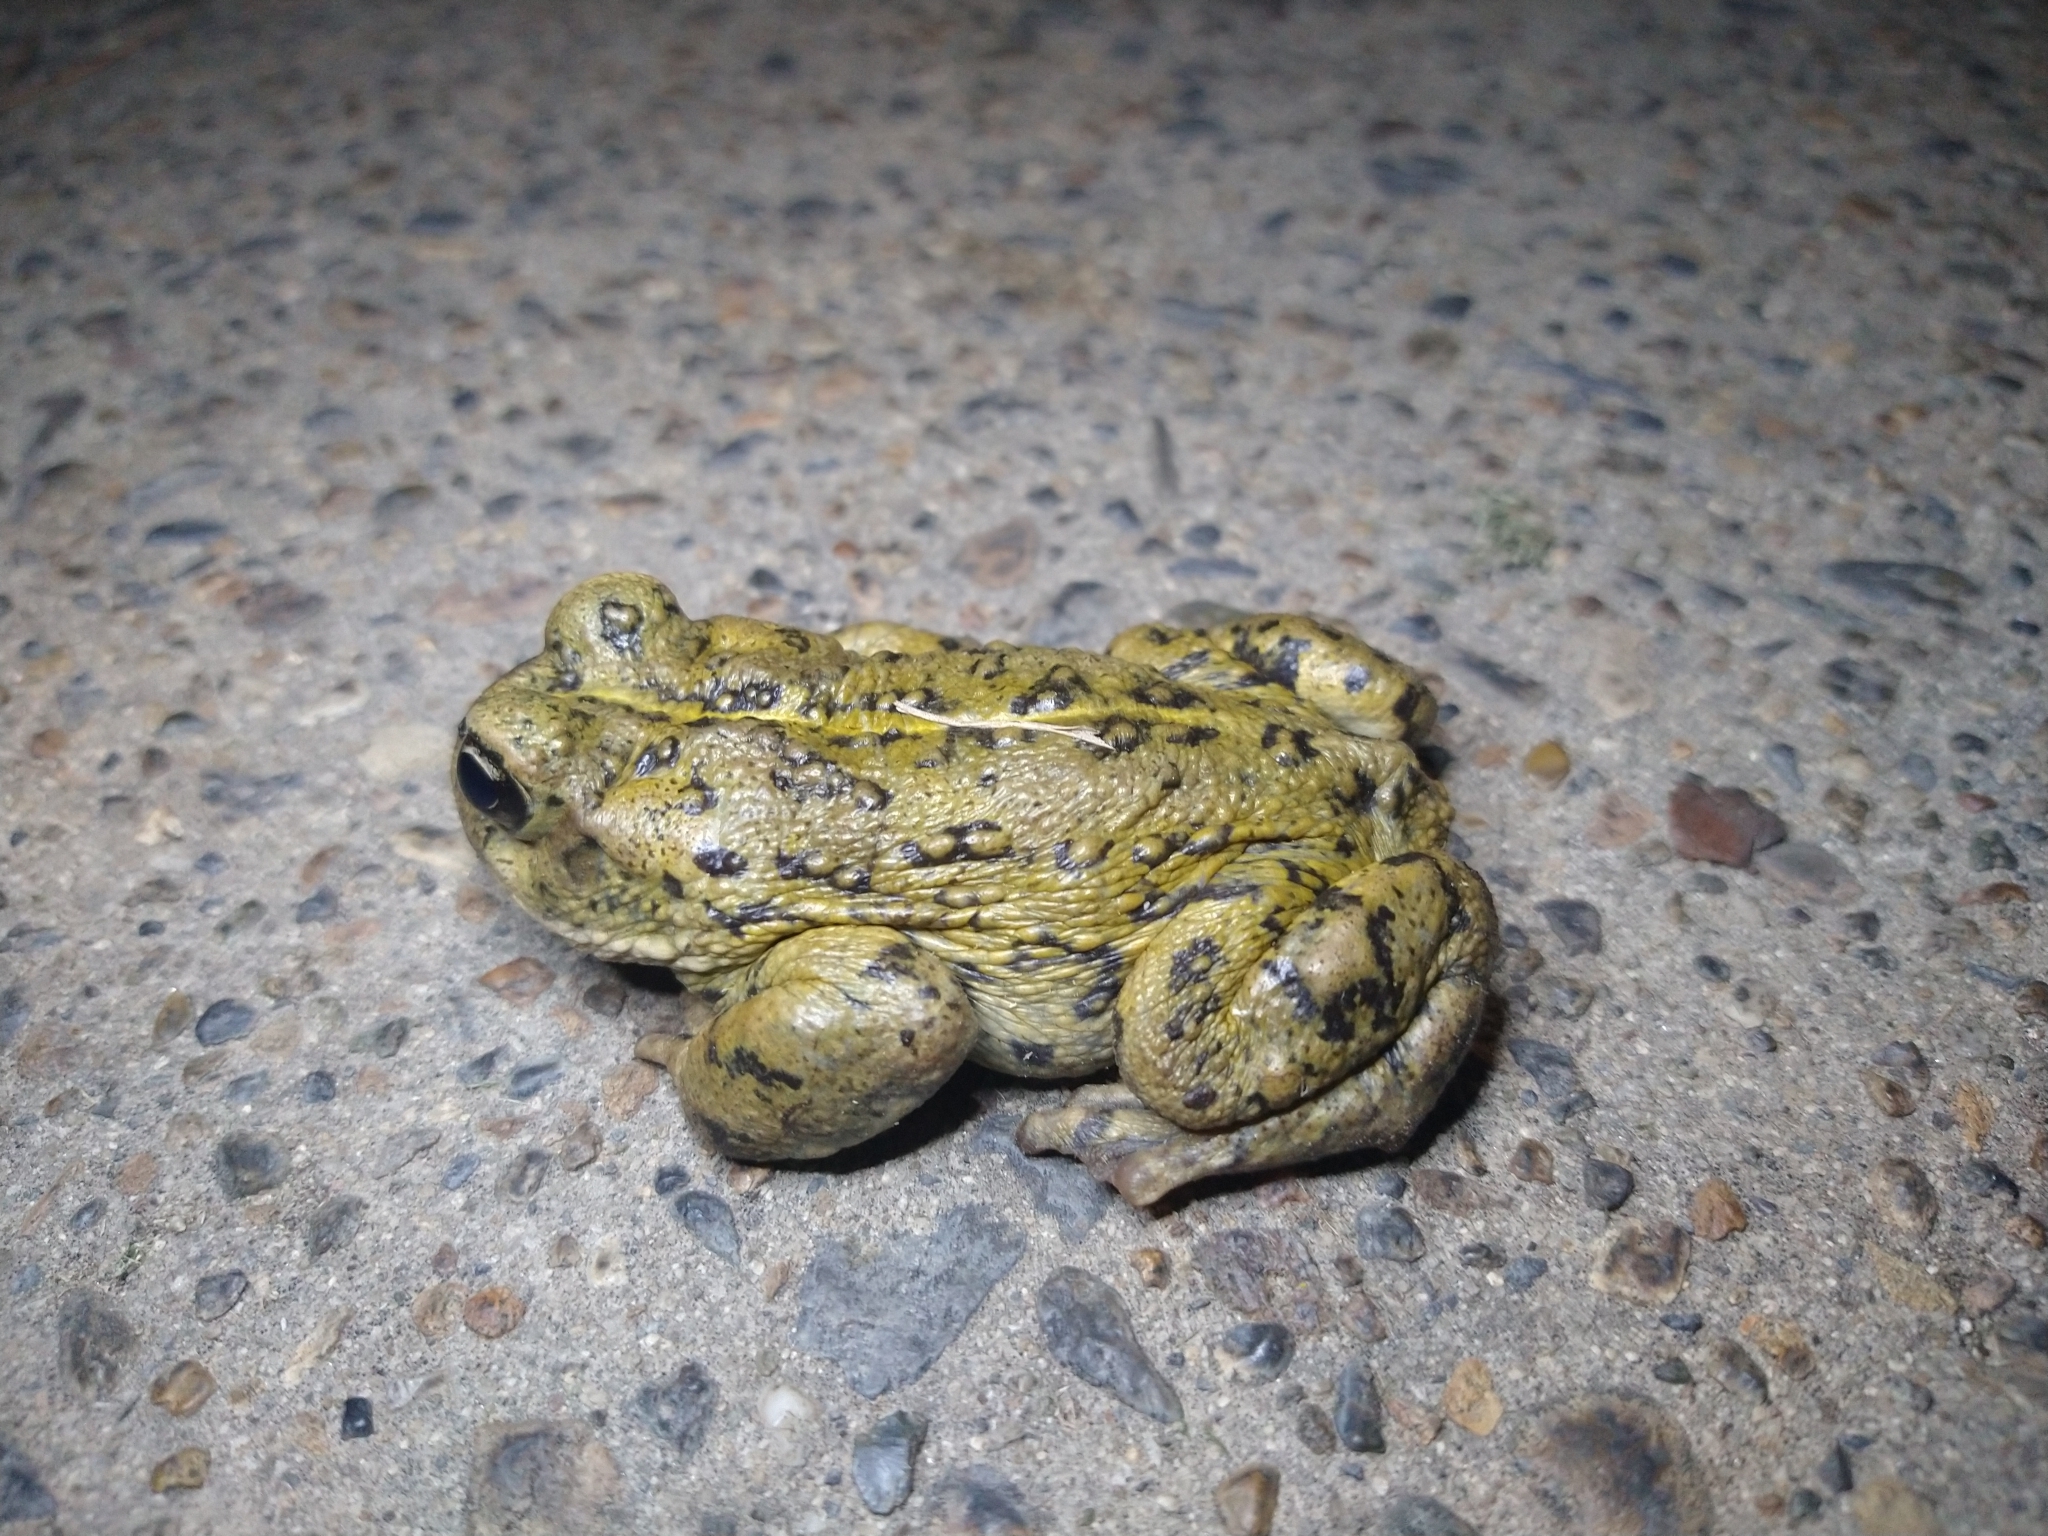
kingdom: Animalia
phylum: Chordata
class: Amphibia
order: Anura
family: Bufonidae
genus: Anaxyrus
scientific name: Anaxyrus boreas
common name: Western toad
